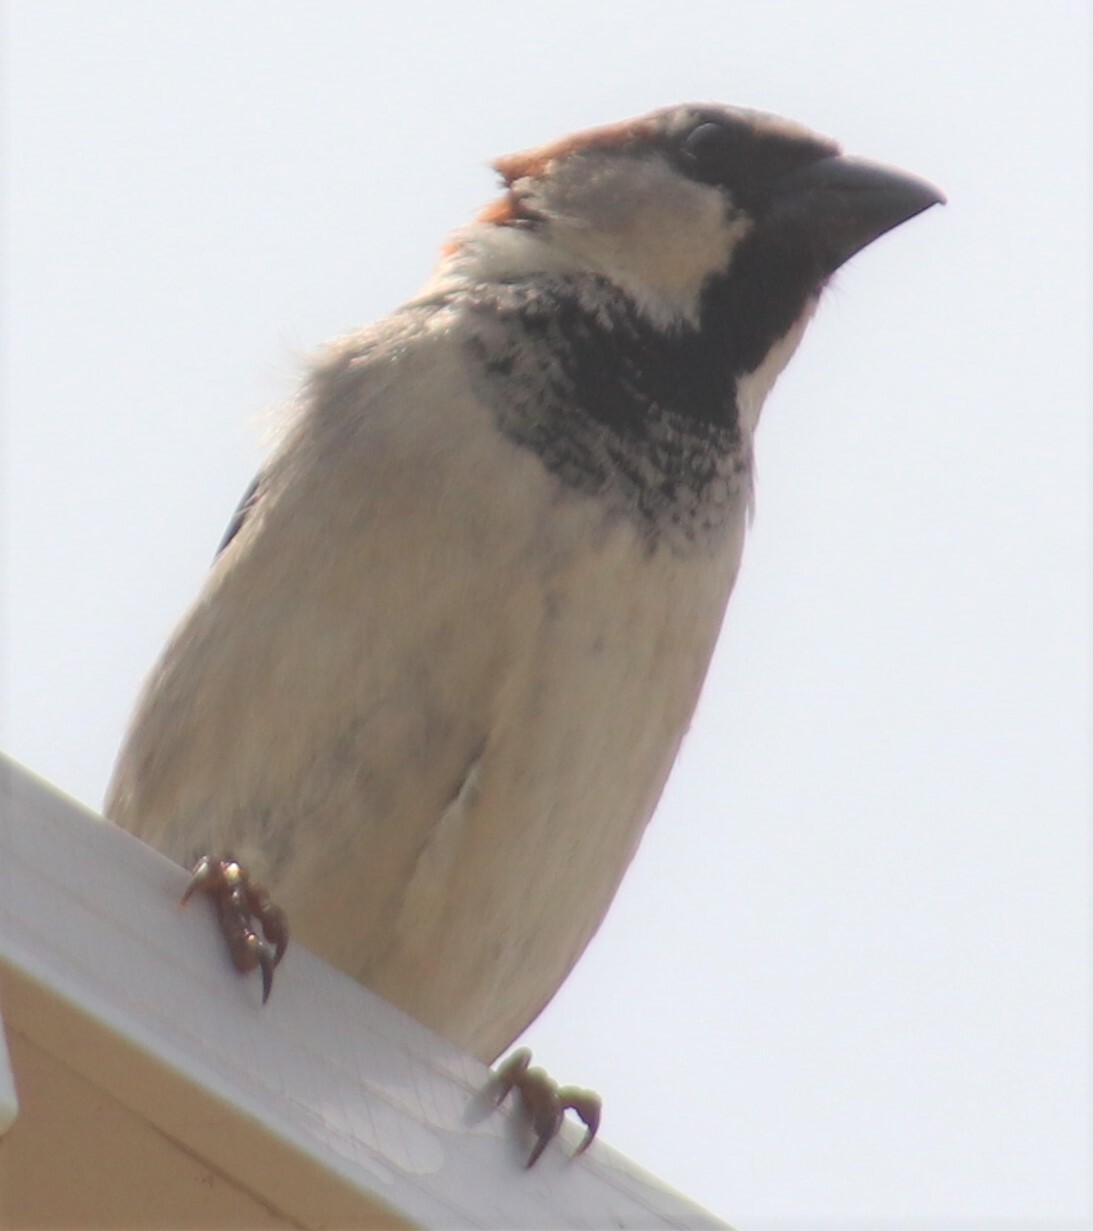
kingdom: Animalia
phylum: Chordata
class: Aves
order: Passeriformes
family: Passeridae
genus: Passer
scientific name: Passer domesticus
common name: House sparrow
